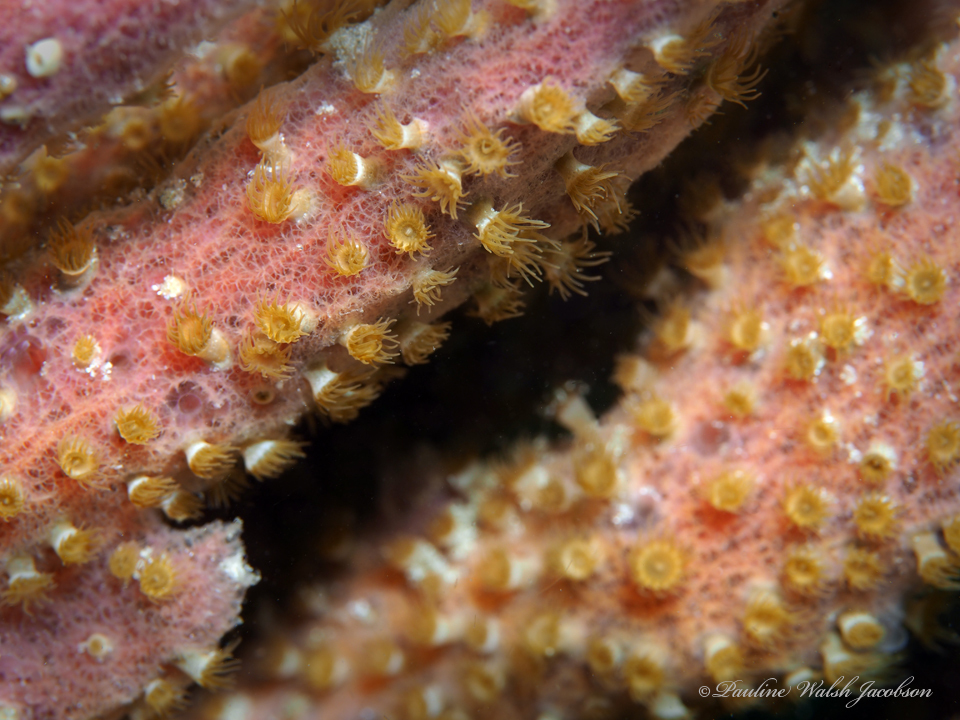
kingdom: Animalia
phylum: Porifera
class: Demospongiae
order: Haplosclerida
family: Niphatidae
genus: Niphates
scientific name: Niphates erecta
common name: Lavender rope sponge
